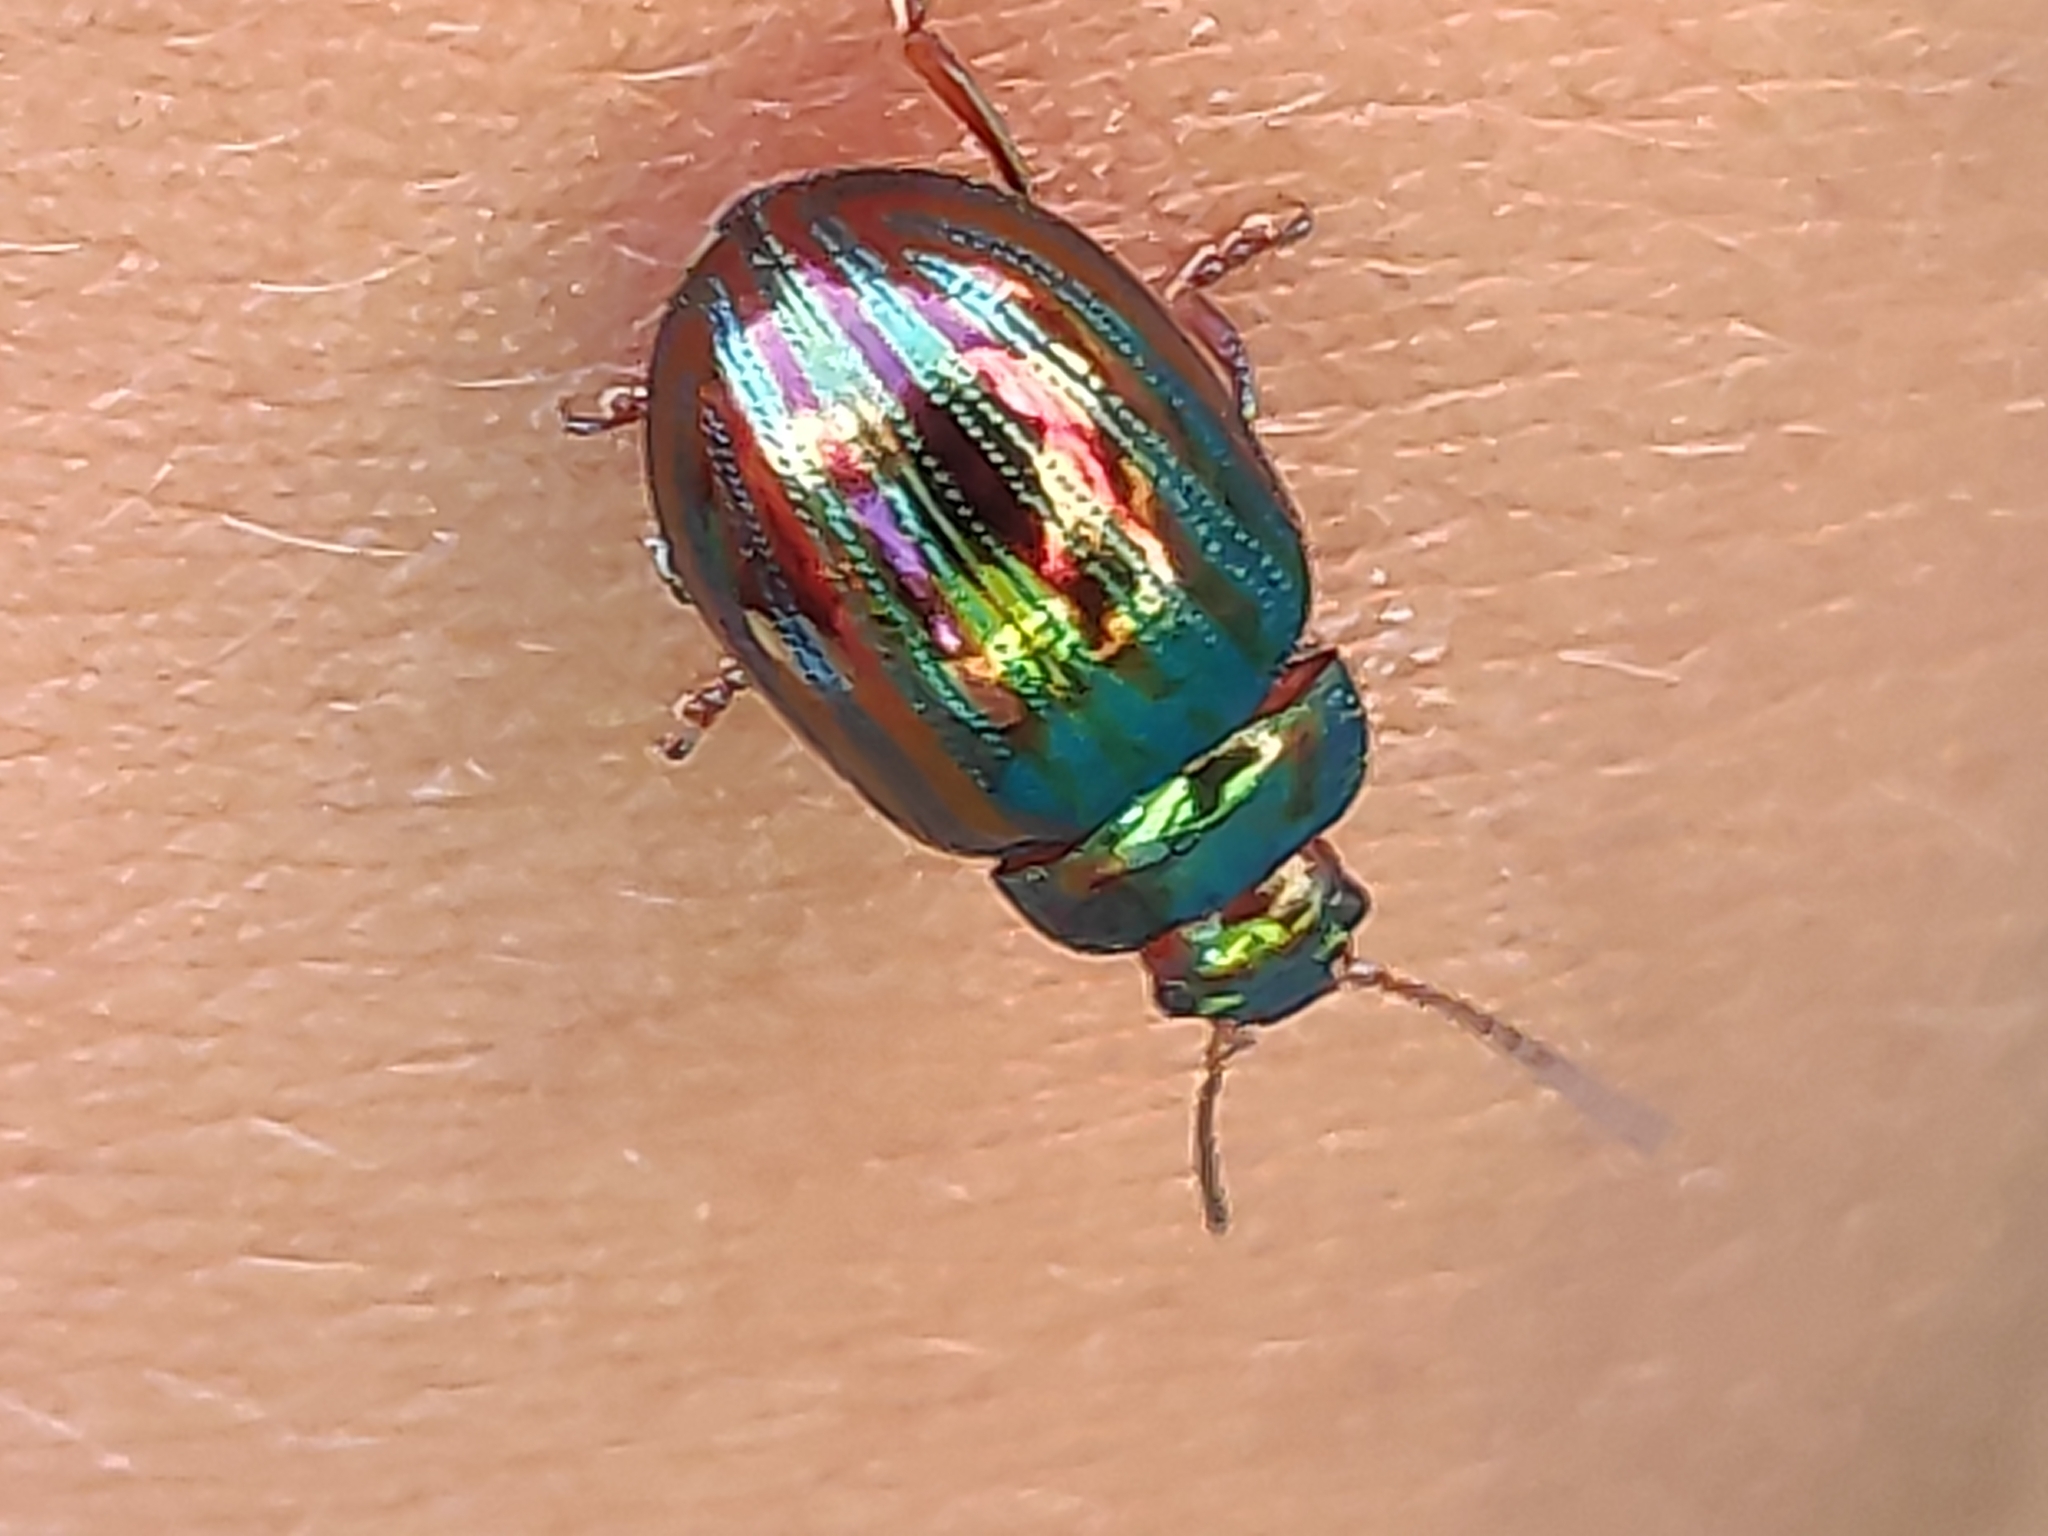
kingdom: Animalia
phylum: Arthropoda
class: Insecta
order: Coleoptera
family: Chrysomelidae
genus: Chrysolina
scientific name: Chrysolina americana
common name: Rosemary beetle
